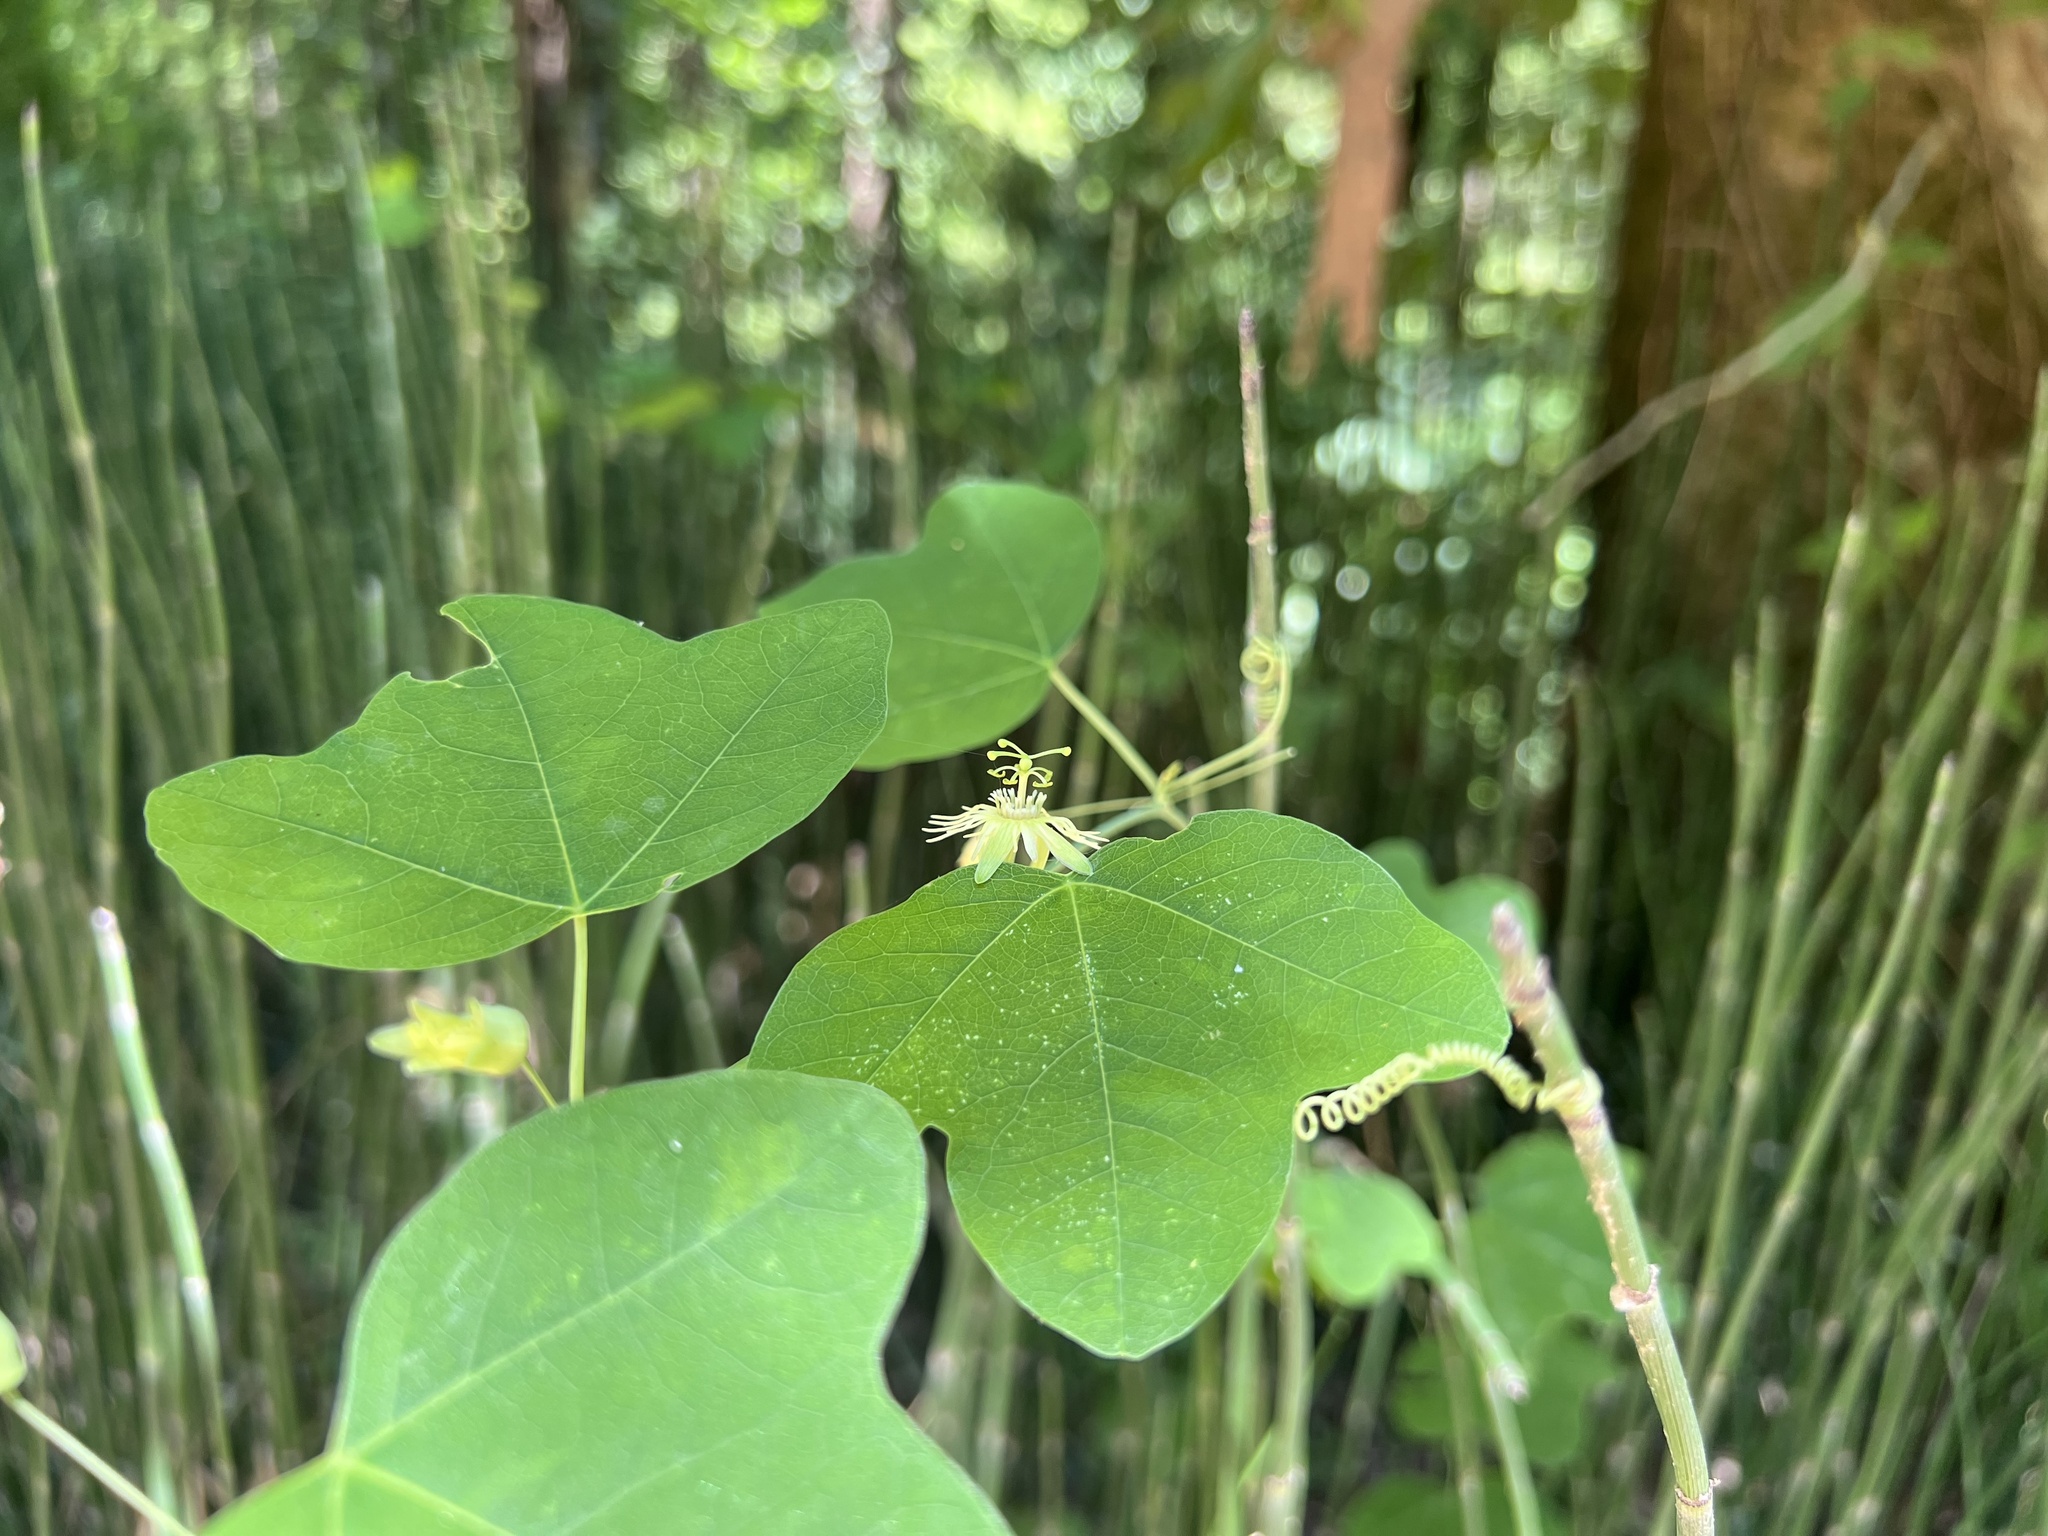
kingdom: Plantae
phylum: Tracheophyta
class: Magnoliopsida
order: Malpighiales
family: Passifloraceae
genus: Passiflora
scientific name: Passiflora lutea
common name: Yellow passionflower
